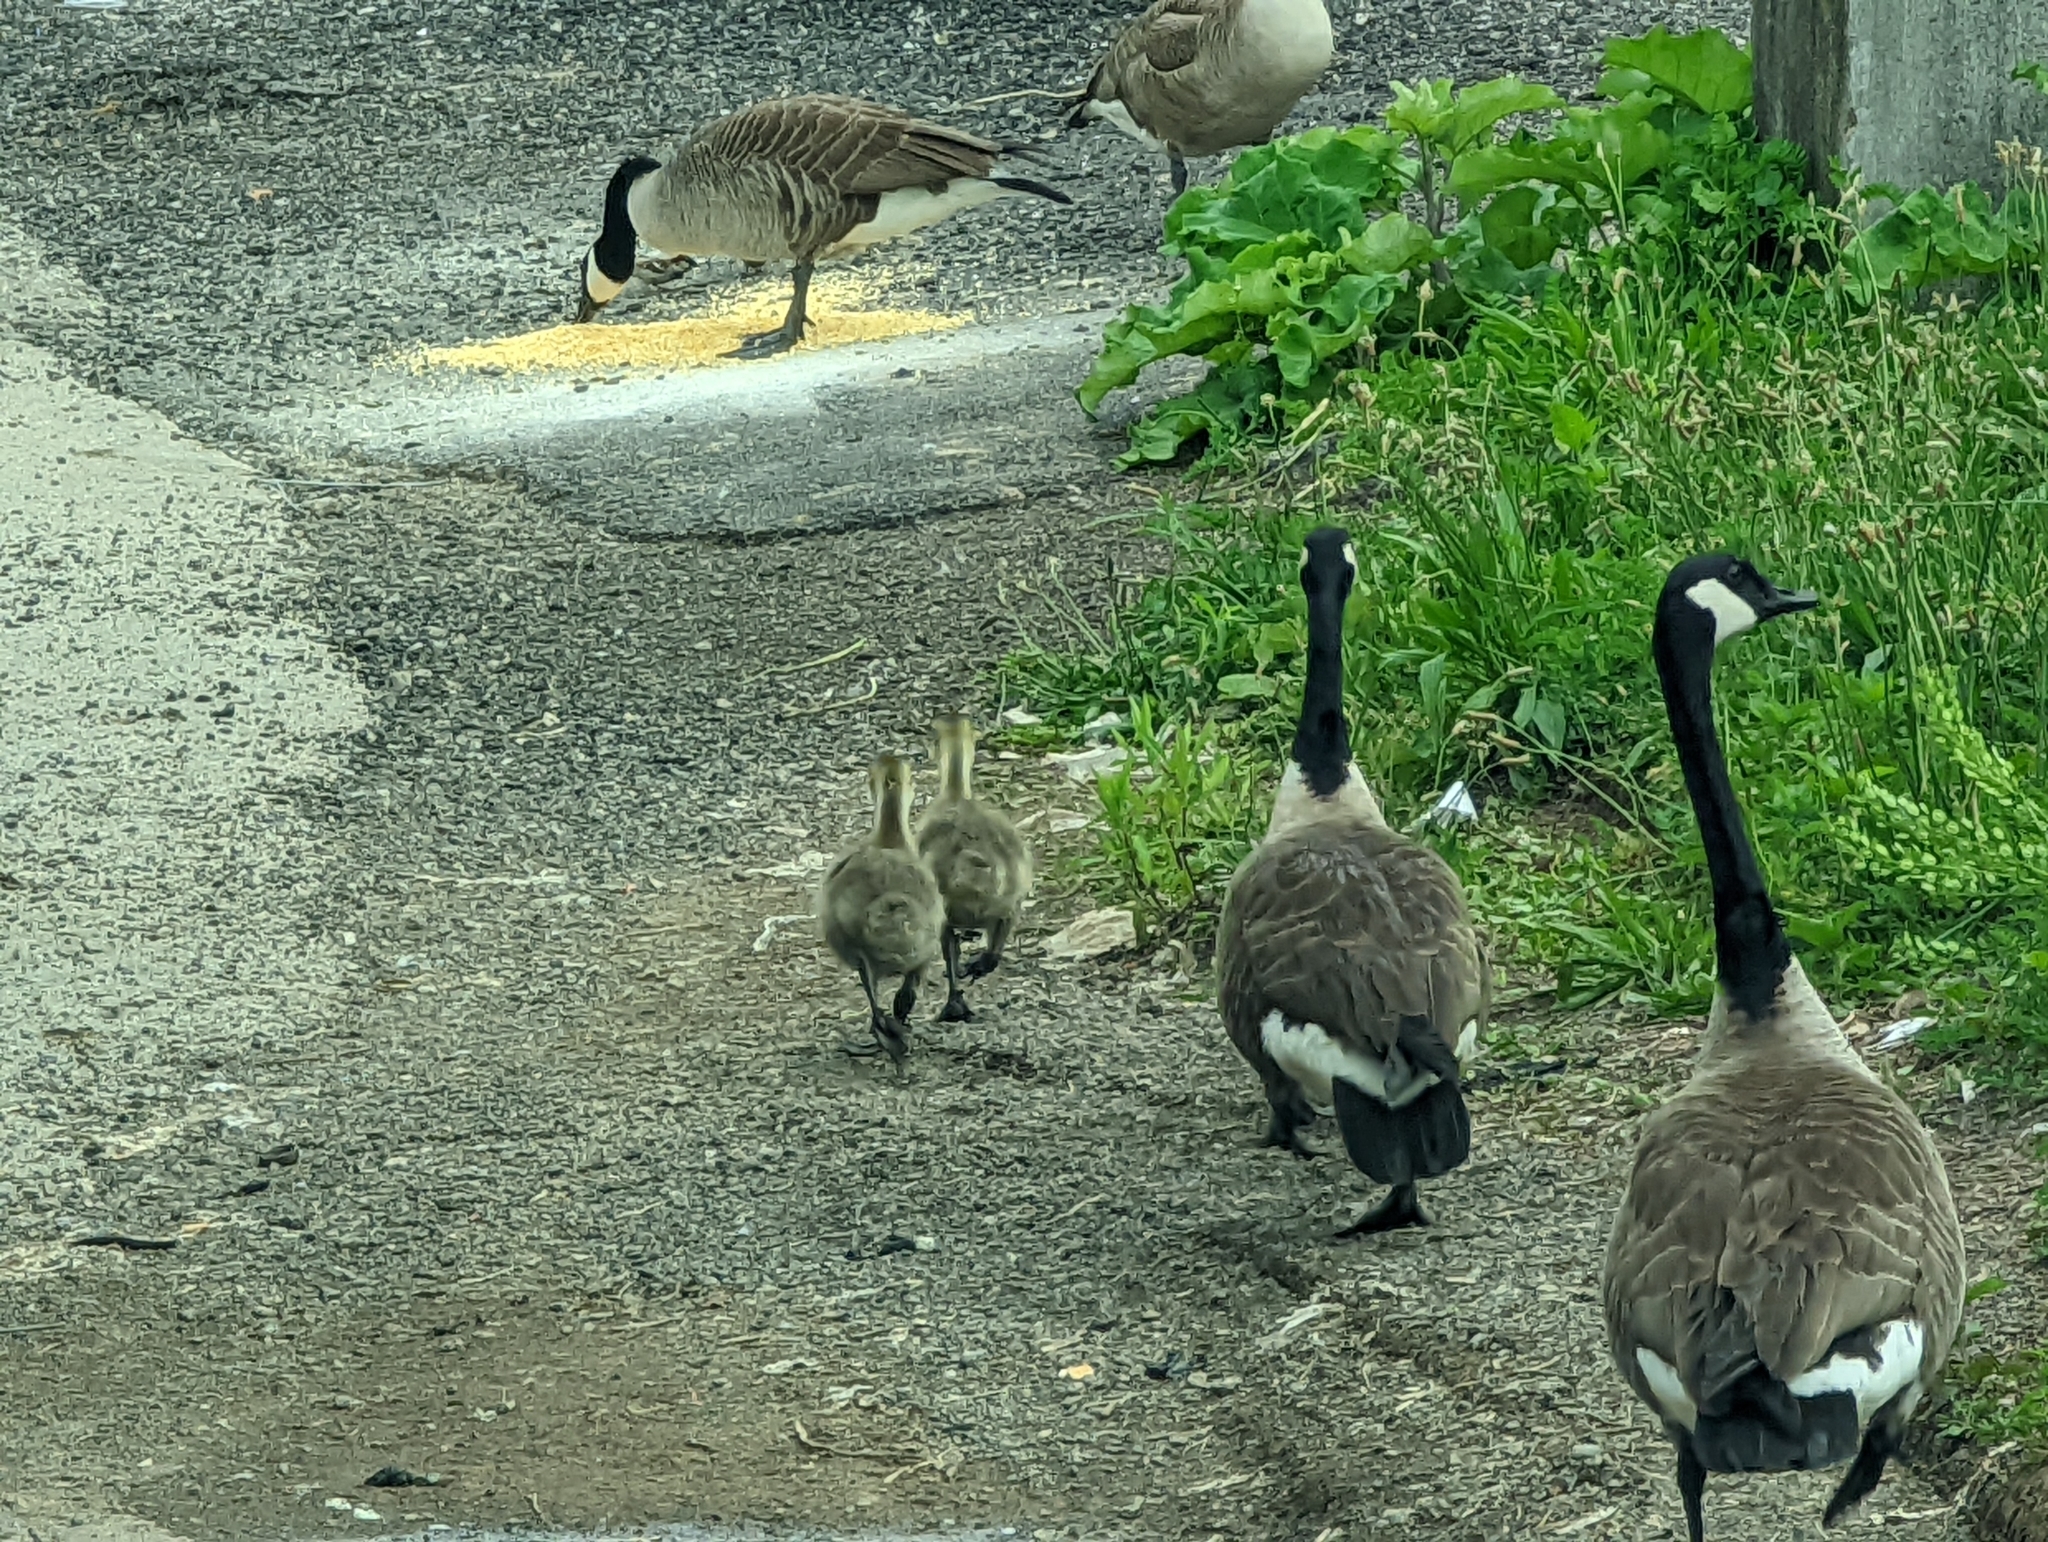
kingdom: Animalia
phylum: Chordata
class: Aves
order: Anseriformes
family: Anatidae
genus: Branta
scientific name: Branta canadensis
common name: Canada goose
